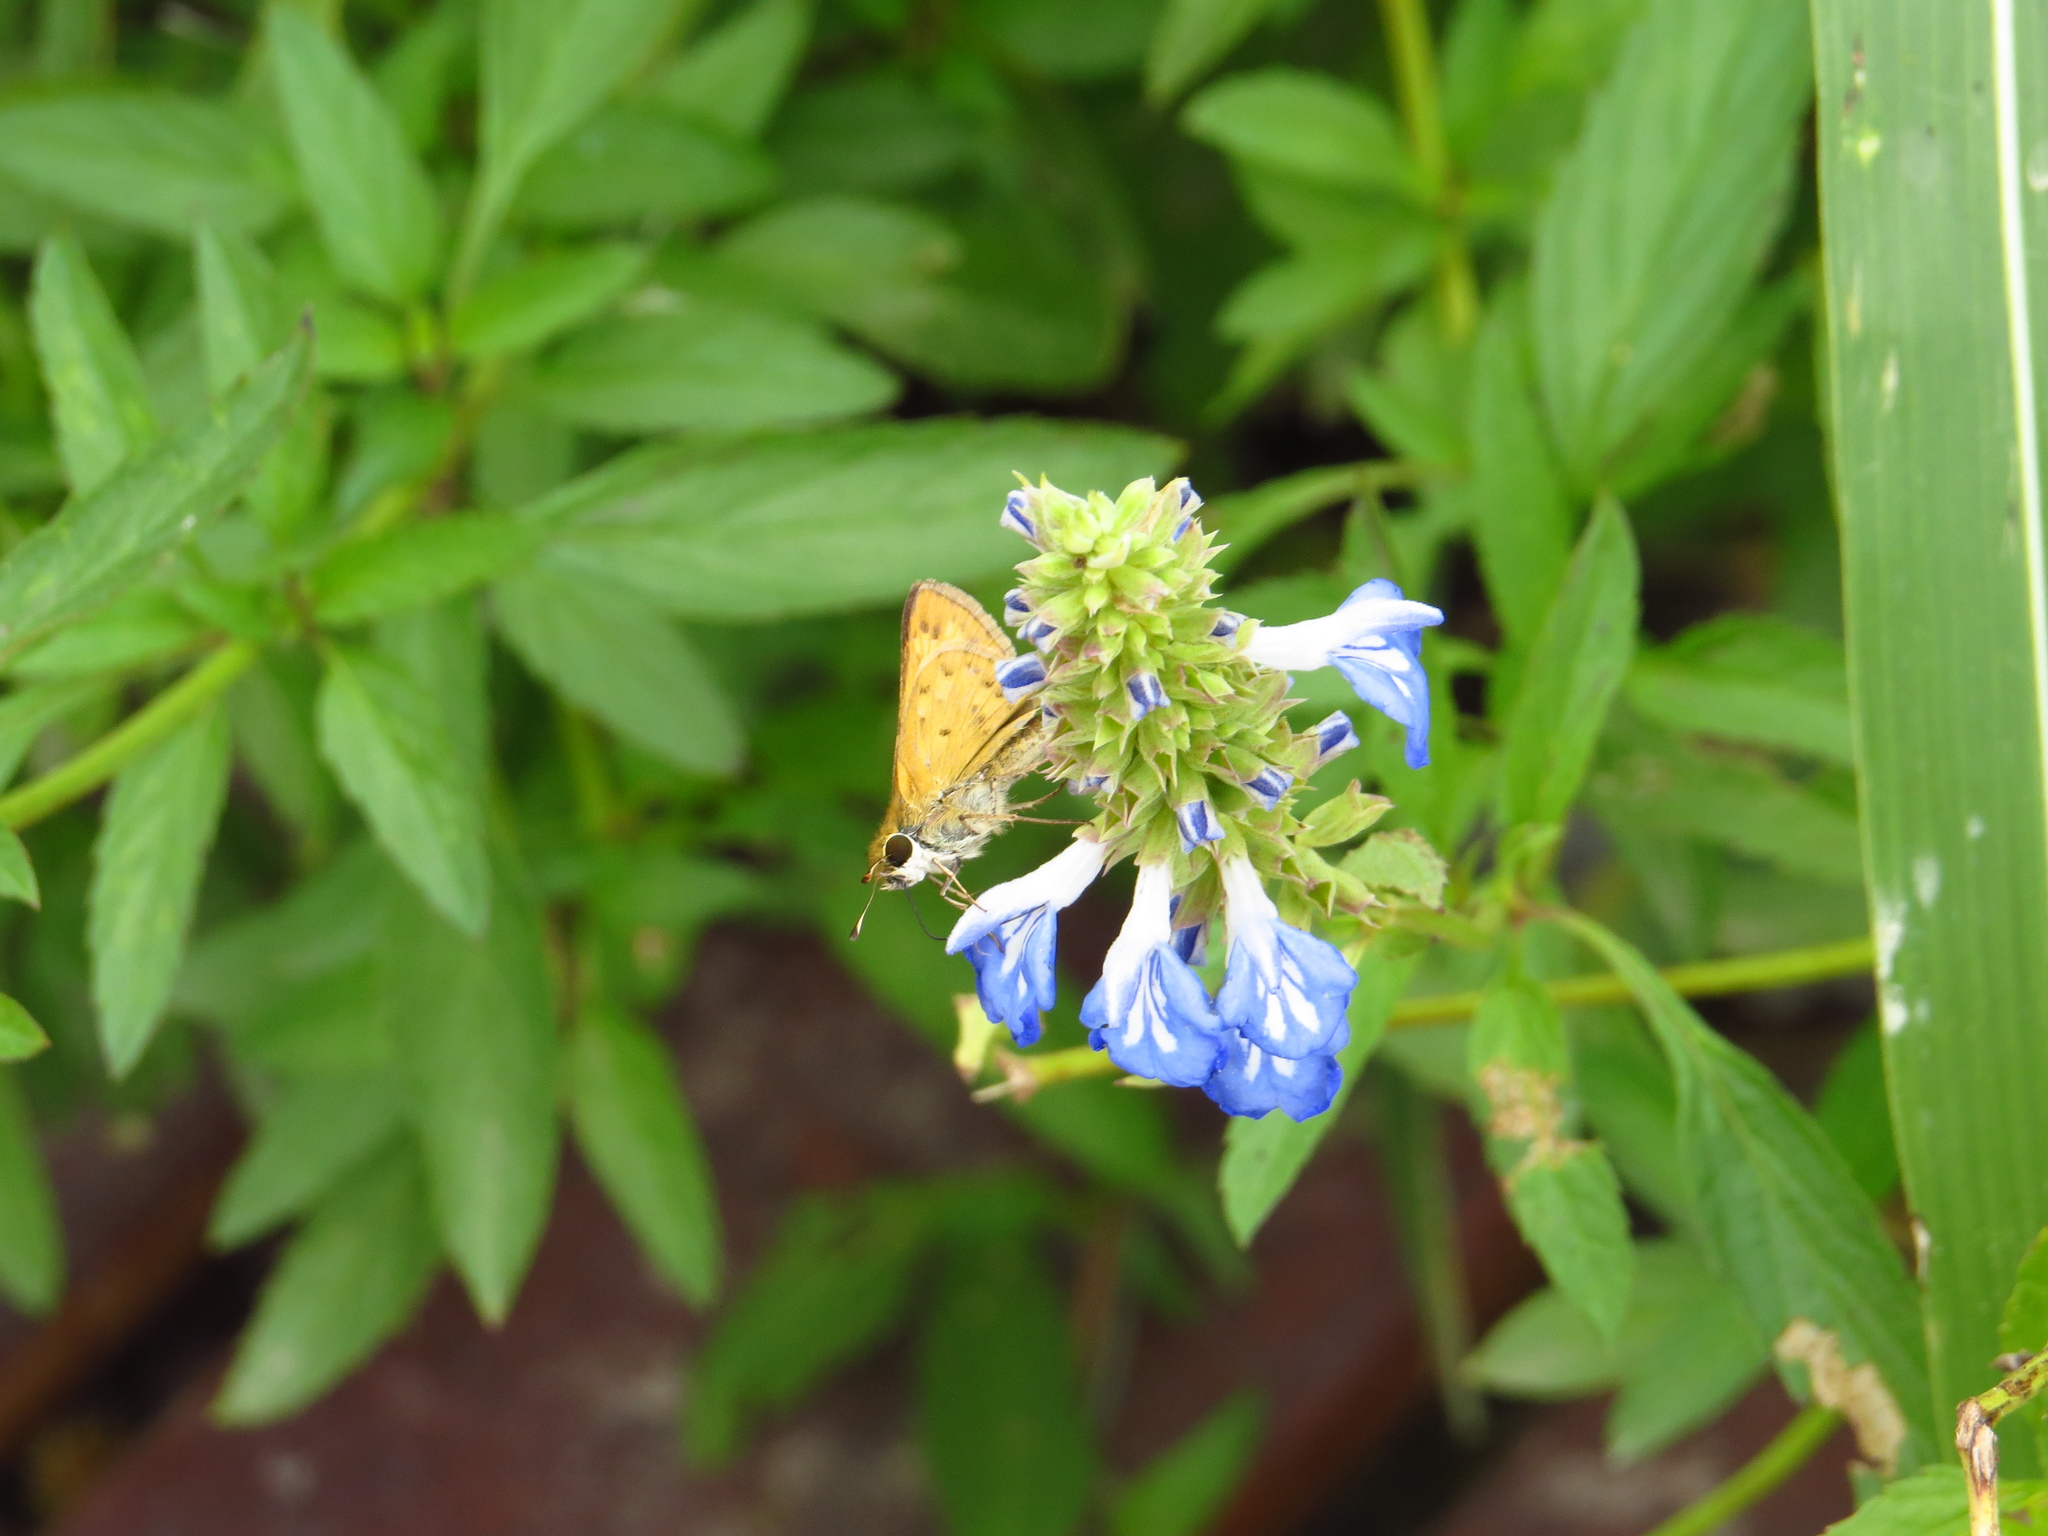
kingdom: Animalia
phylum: Arthropoda
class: Insecta
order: Lepidoptera
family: Hesperiidae
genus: Hylephila
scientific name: Hylephila phyleus
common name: Fiery skipper
